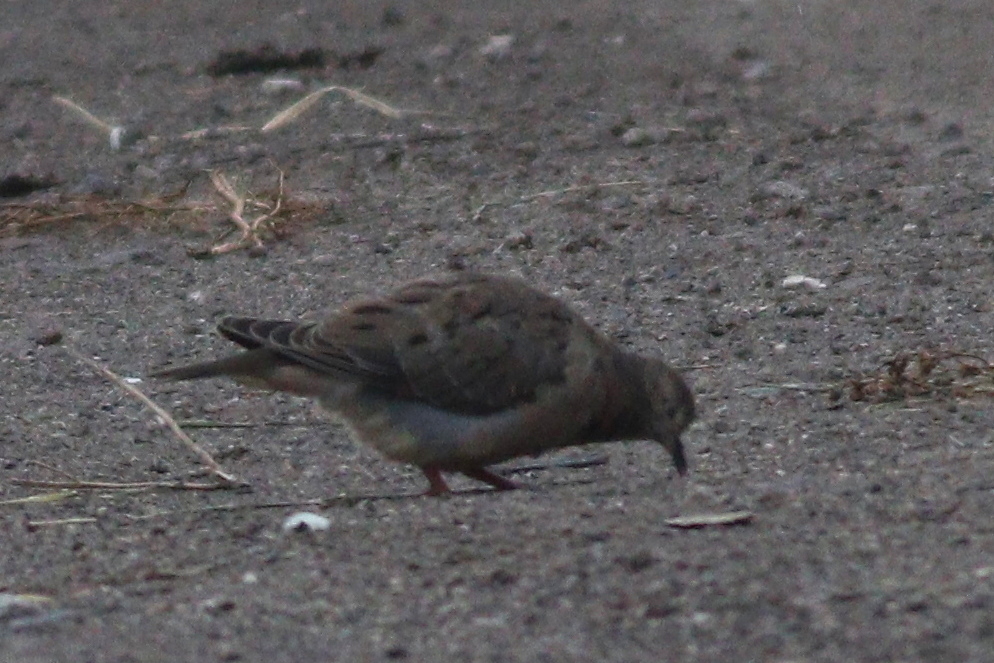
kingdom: Animalia
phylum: Chordata
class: Aves
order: Columbiformes
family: Columbidae
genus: Zenaida
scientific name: Zenaida auriculata
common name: Eared dove
